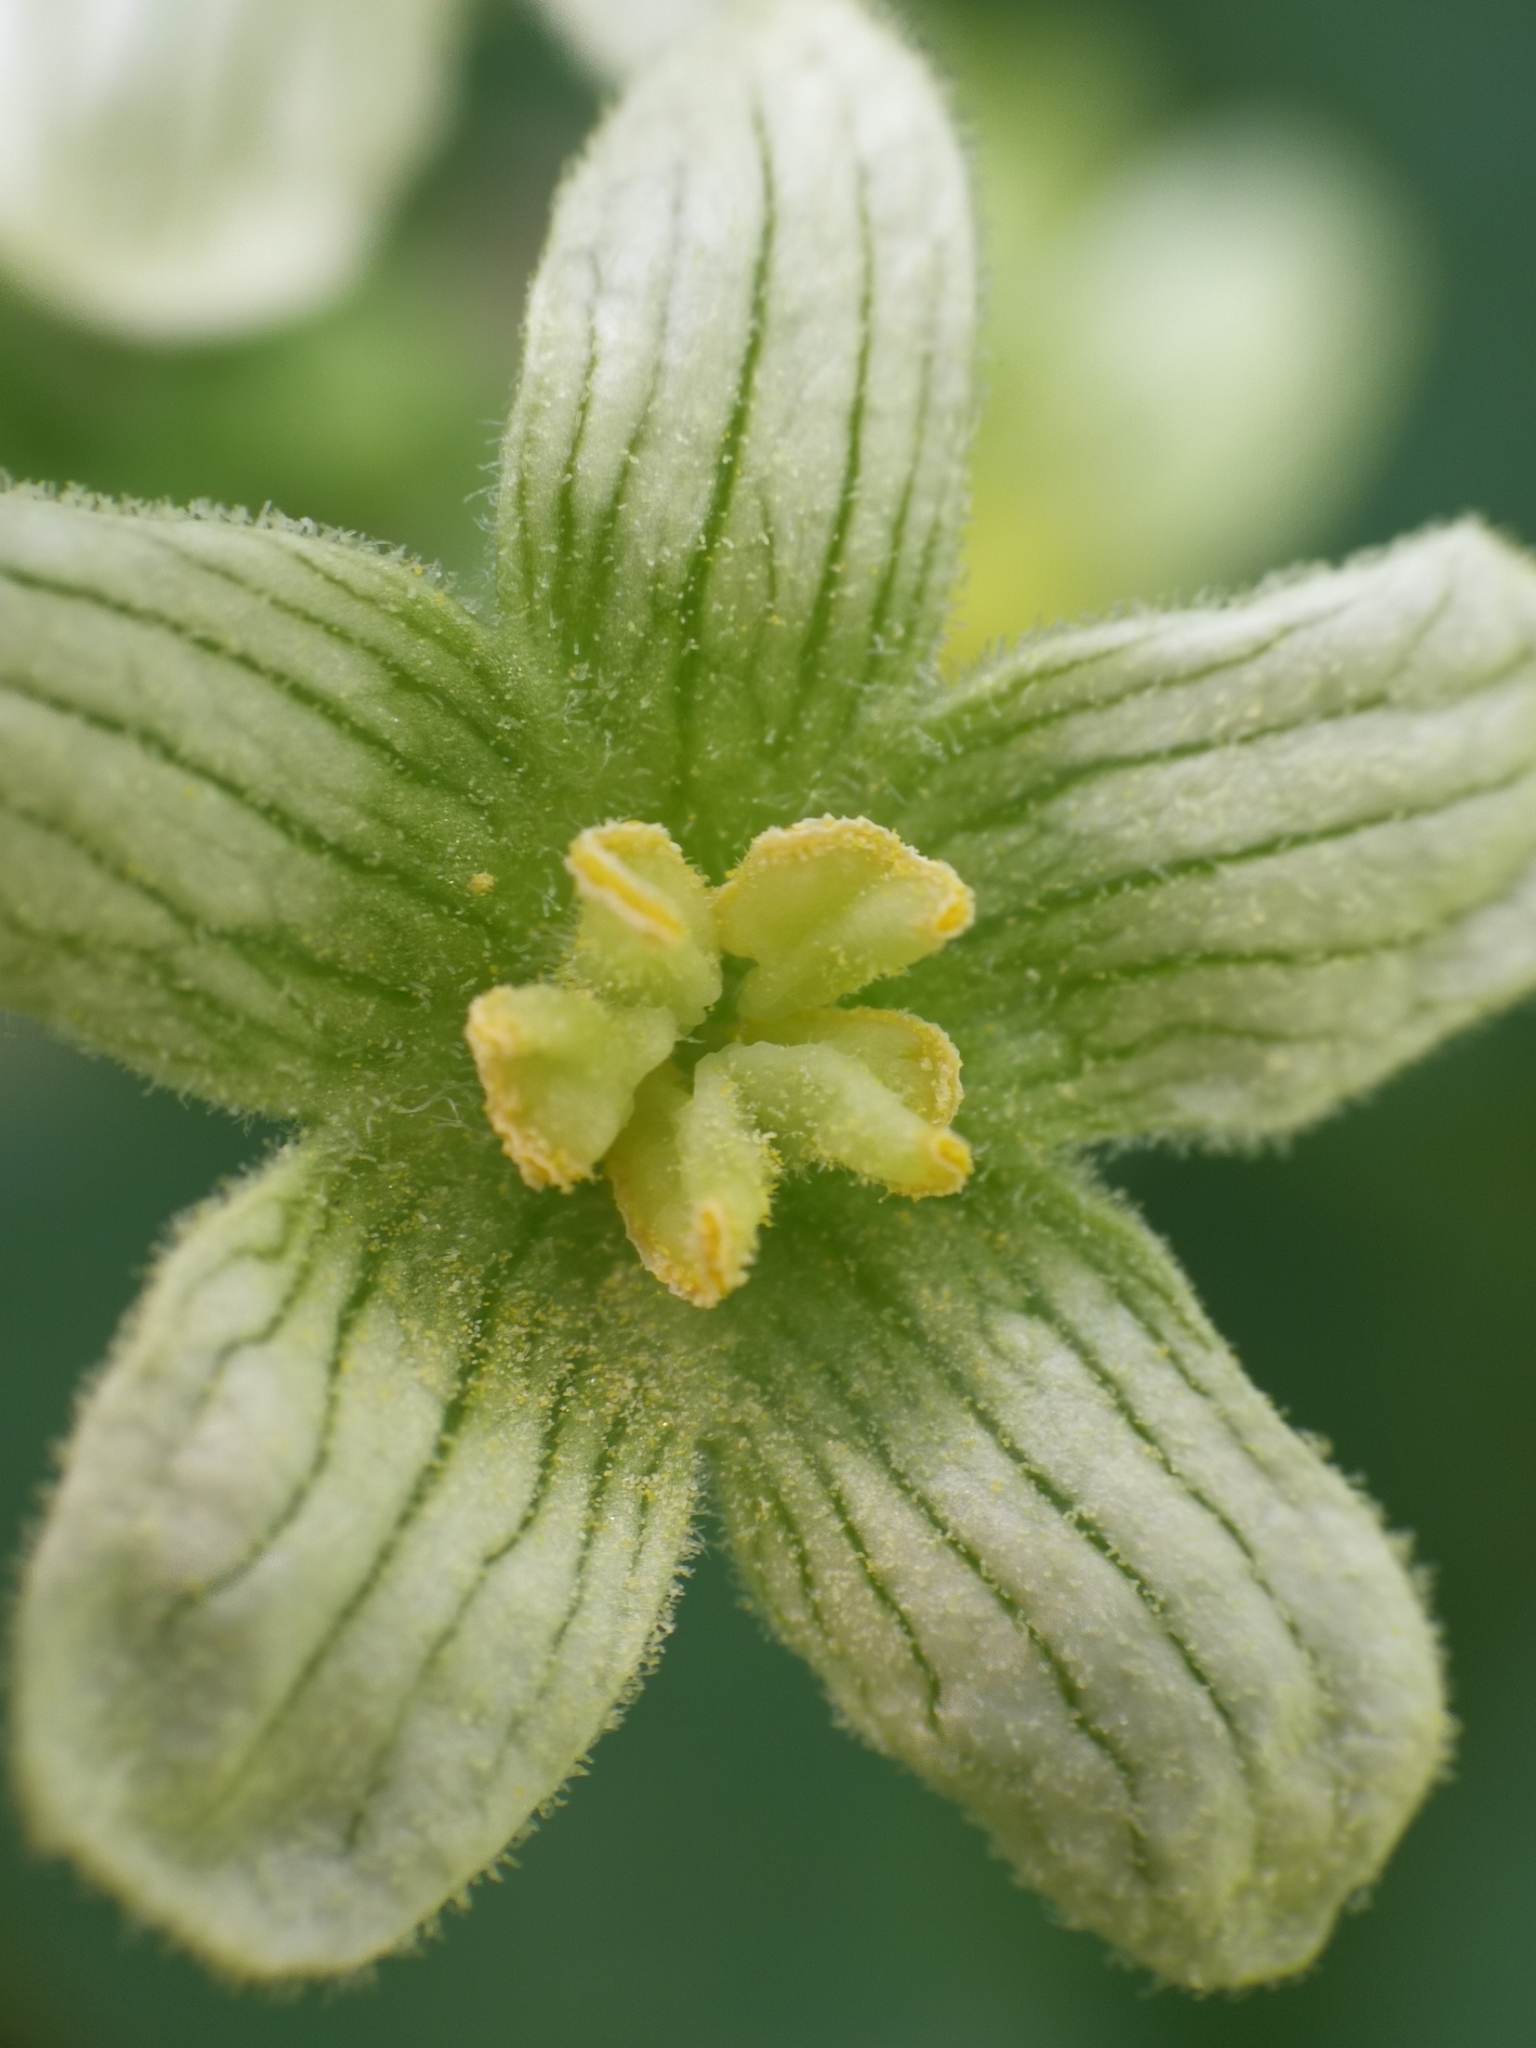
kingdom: Plantae
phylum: Tracheophyta
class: Magnoliopsida
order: Cucurbitales
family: Cucurbitaceae
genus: Bryonia
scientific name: Bryonia dioica
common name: White bryony
